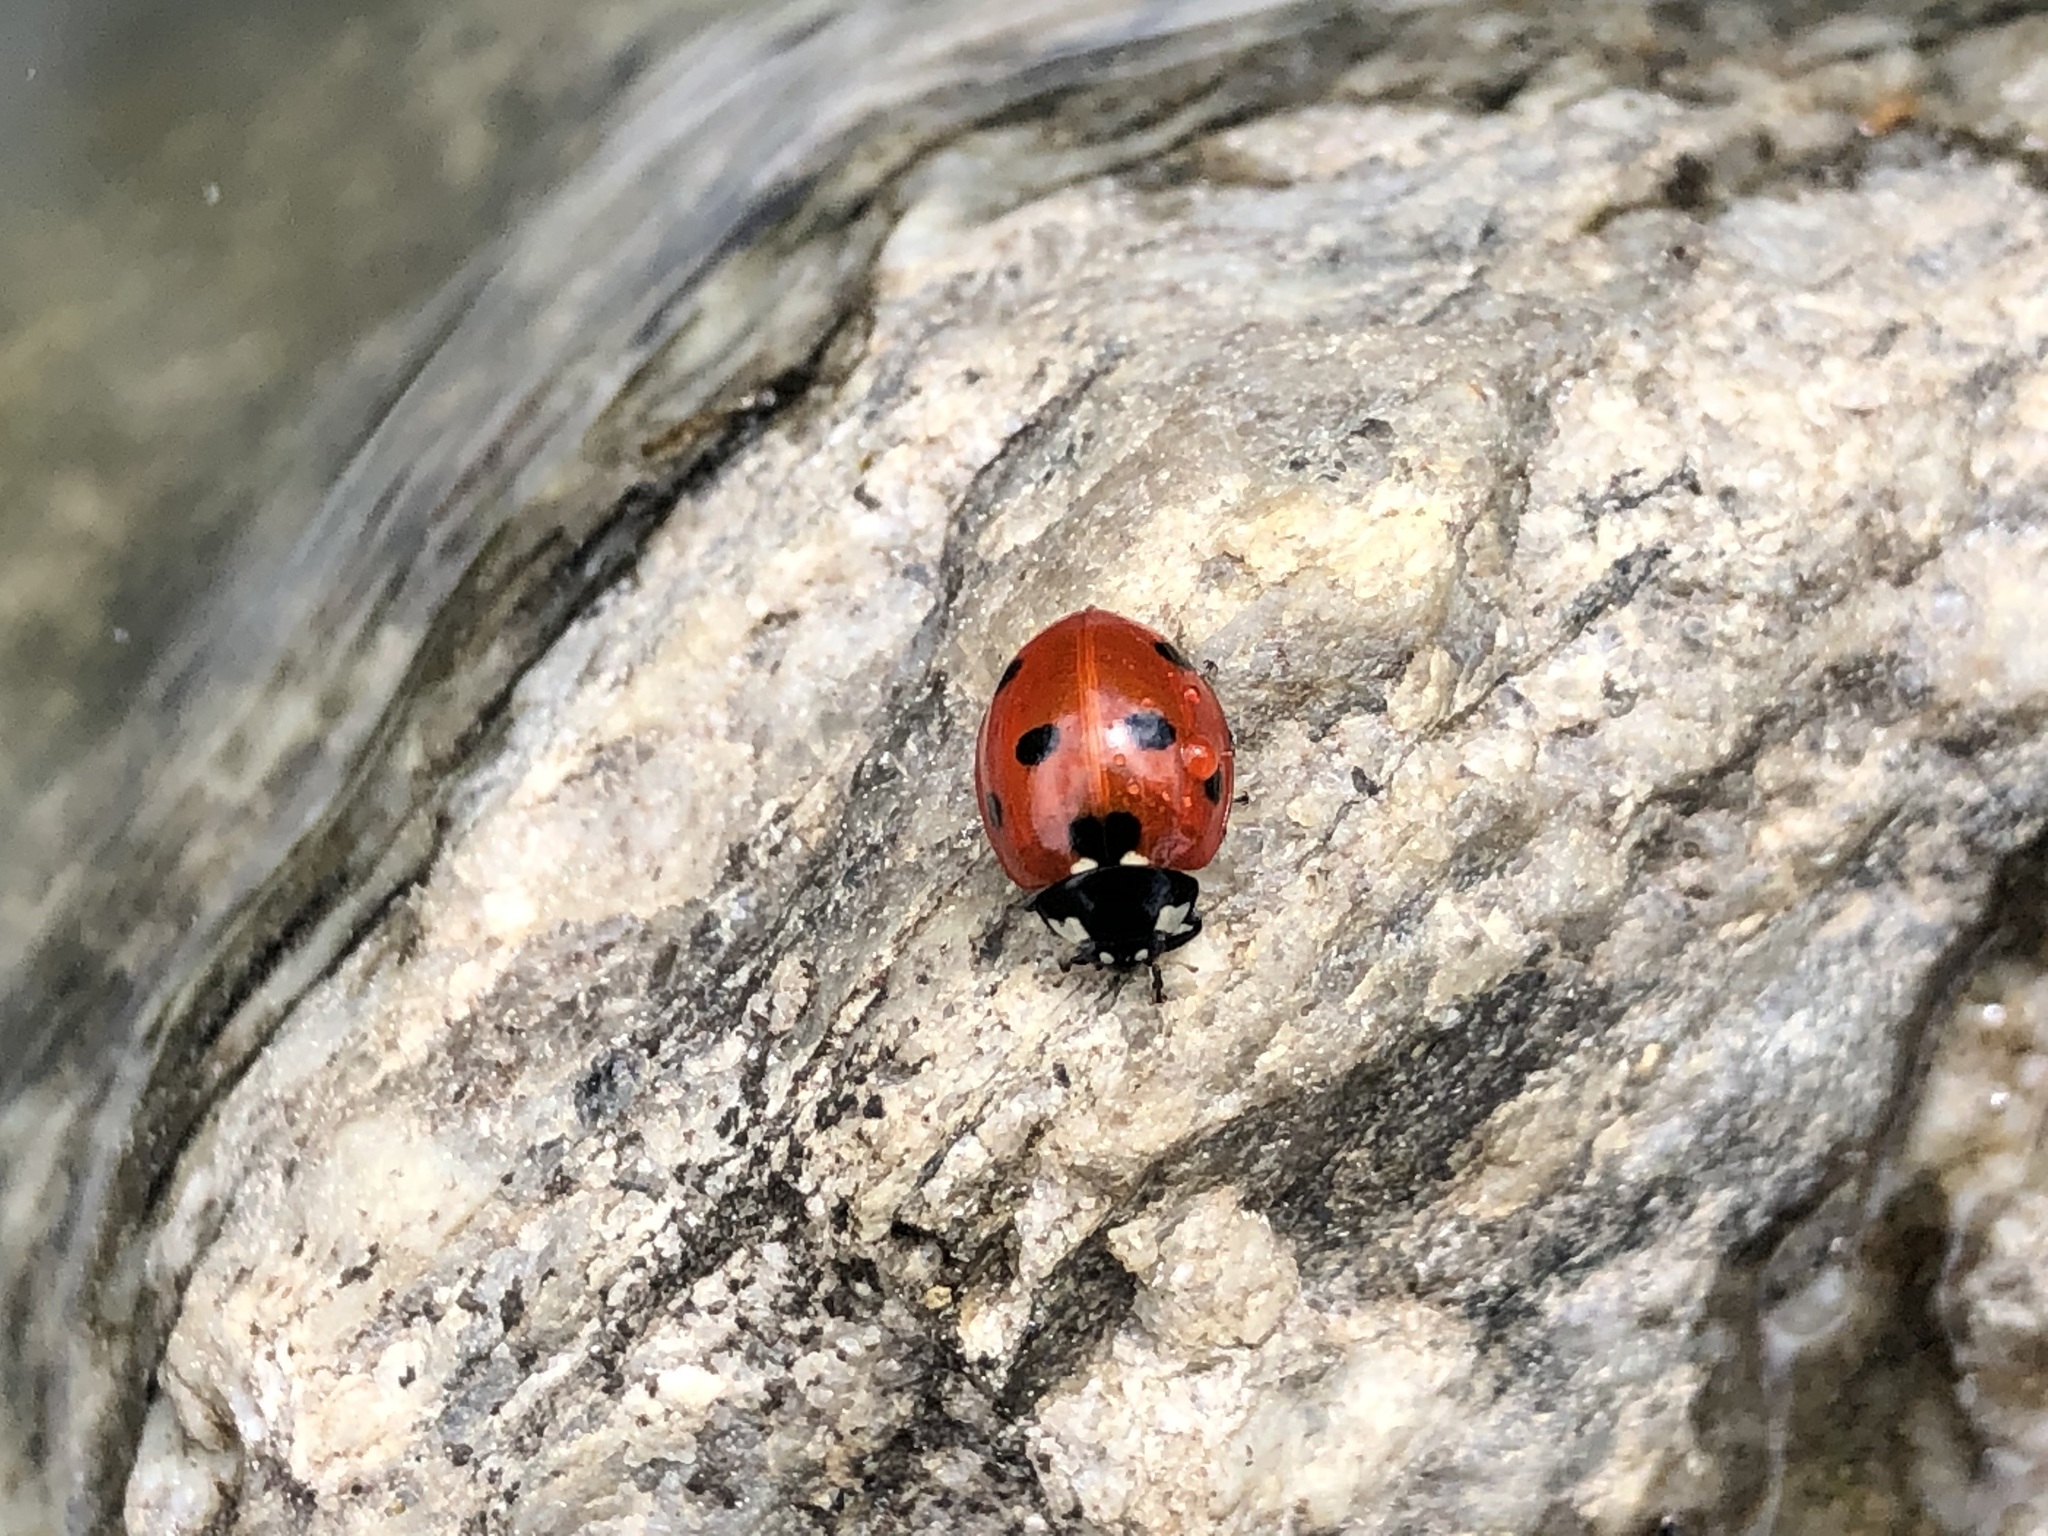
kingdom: Animalia
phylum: Arthropoda
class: Insecta
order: Coleoptera
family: Coccinellidae
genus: Coccinella
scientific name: Coccinella septempunctata
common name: Sevenspotted lady beetle
